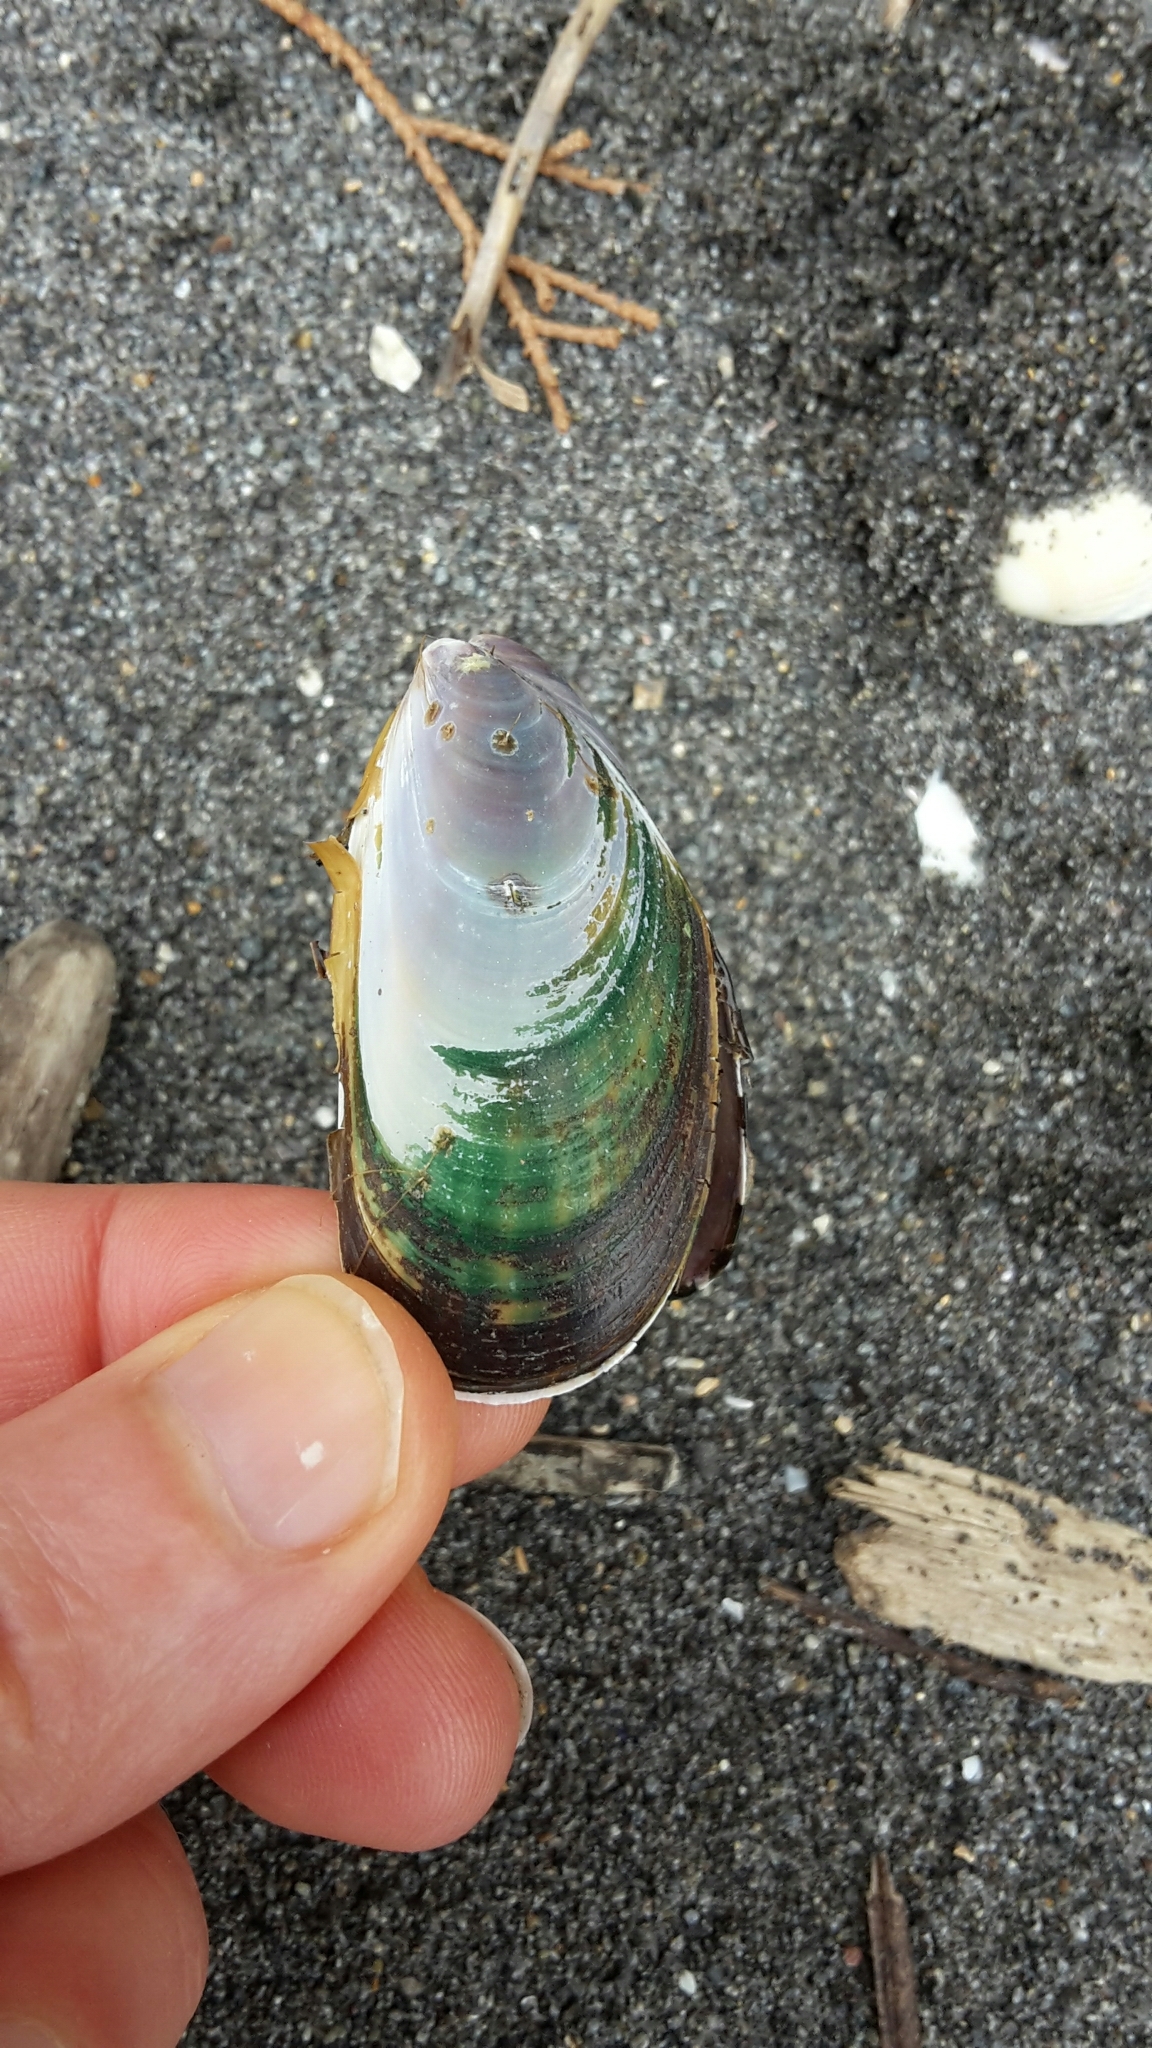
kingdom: Animalia
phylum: Mollusca
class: Bivalvia
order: Mytilida
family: Mytilidae
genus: Perna
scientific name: Perna canaliculus
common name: New zealand greenshelltm
